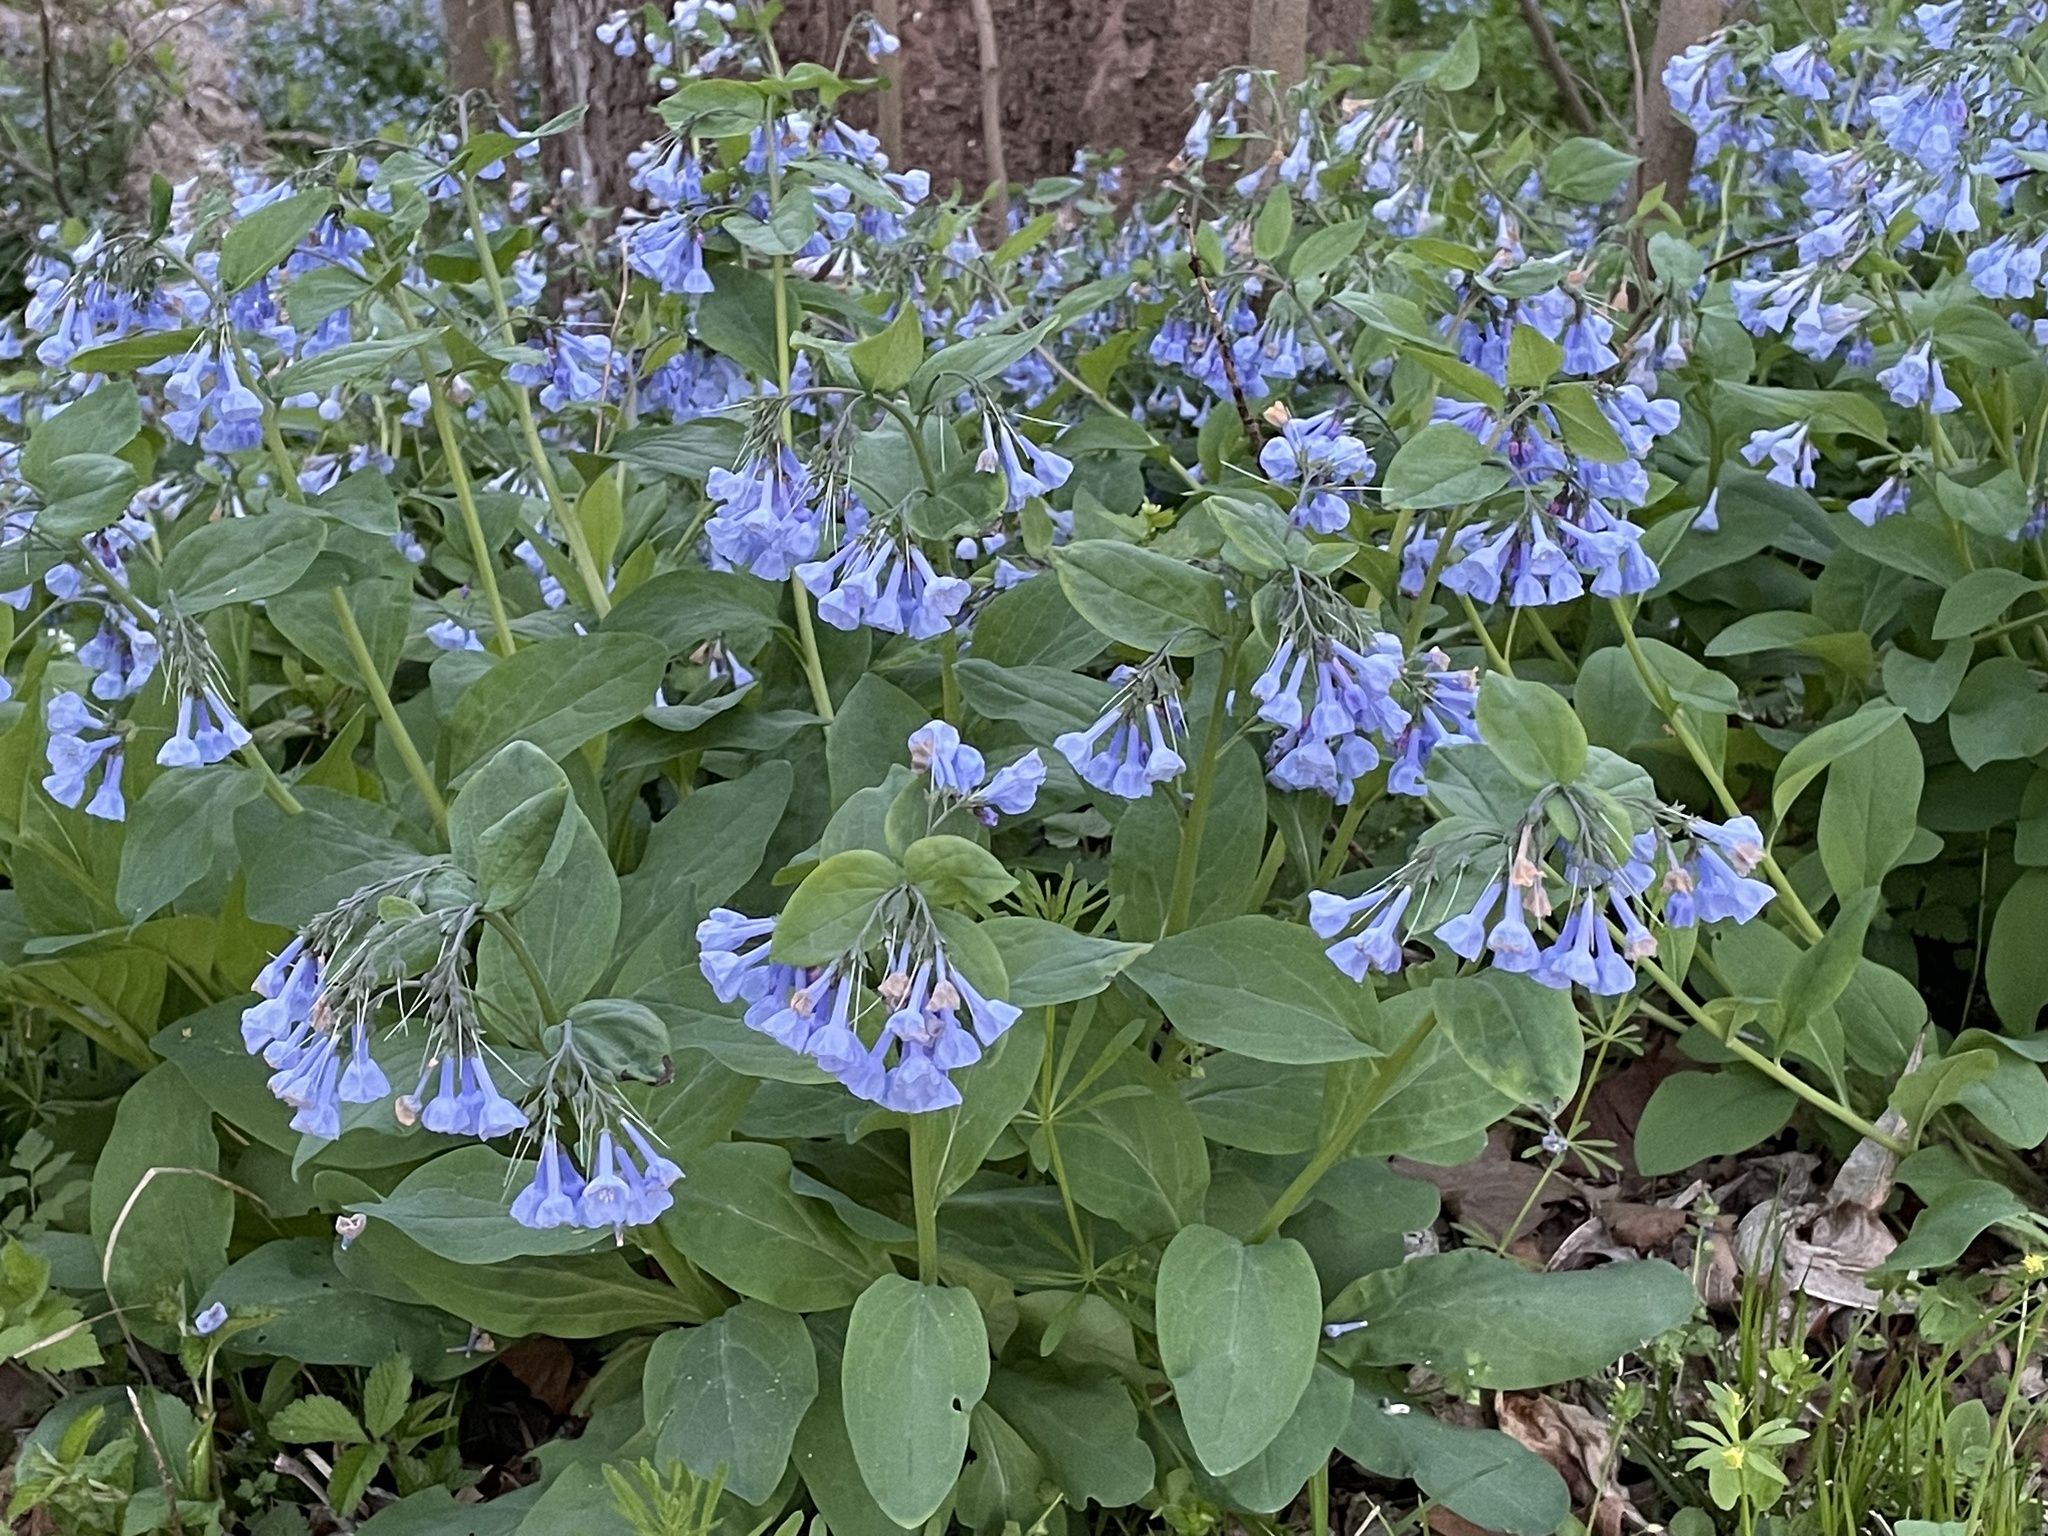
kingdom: Plantae
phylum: Tracheophyta
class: Magnoliopsida
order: Boraginales
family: Boraginaceae
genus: Mertensia
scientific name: Mertensia virginica
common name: Virginia bluebells
